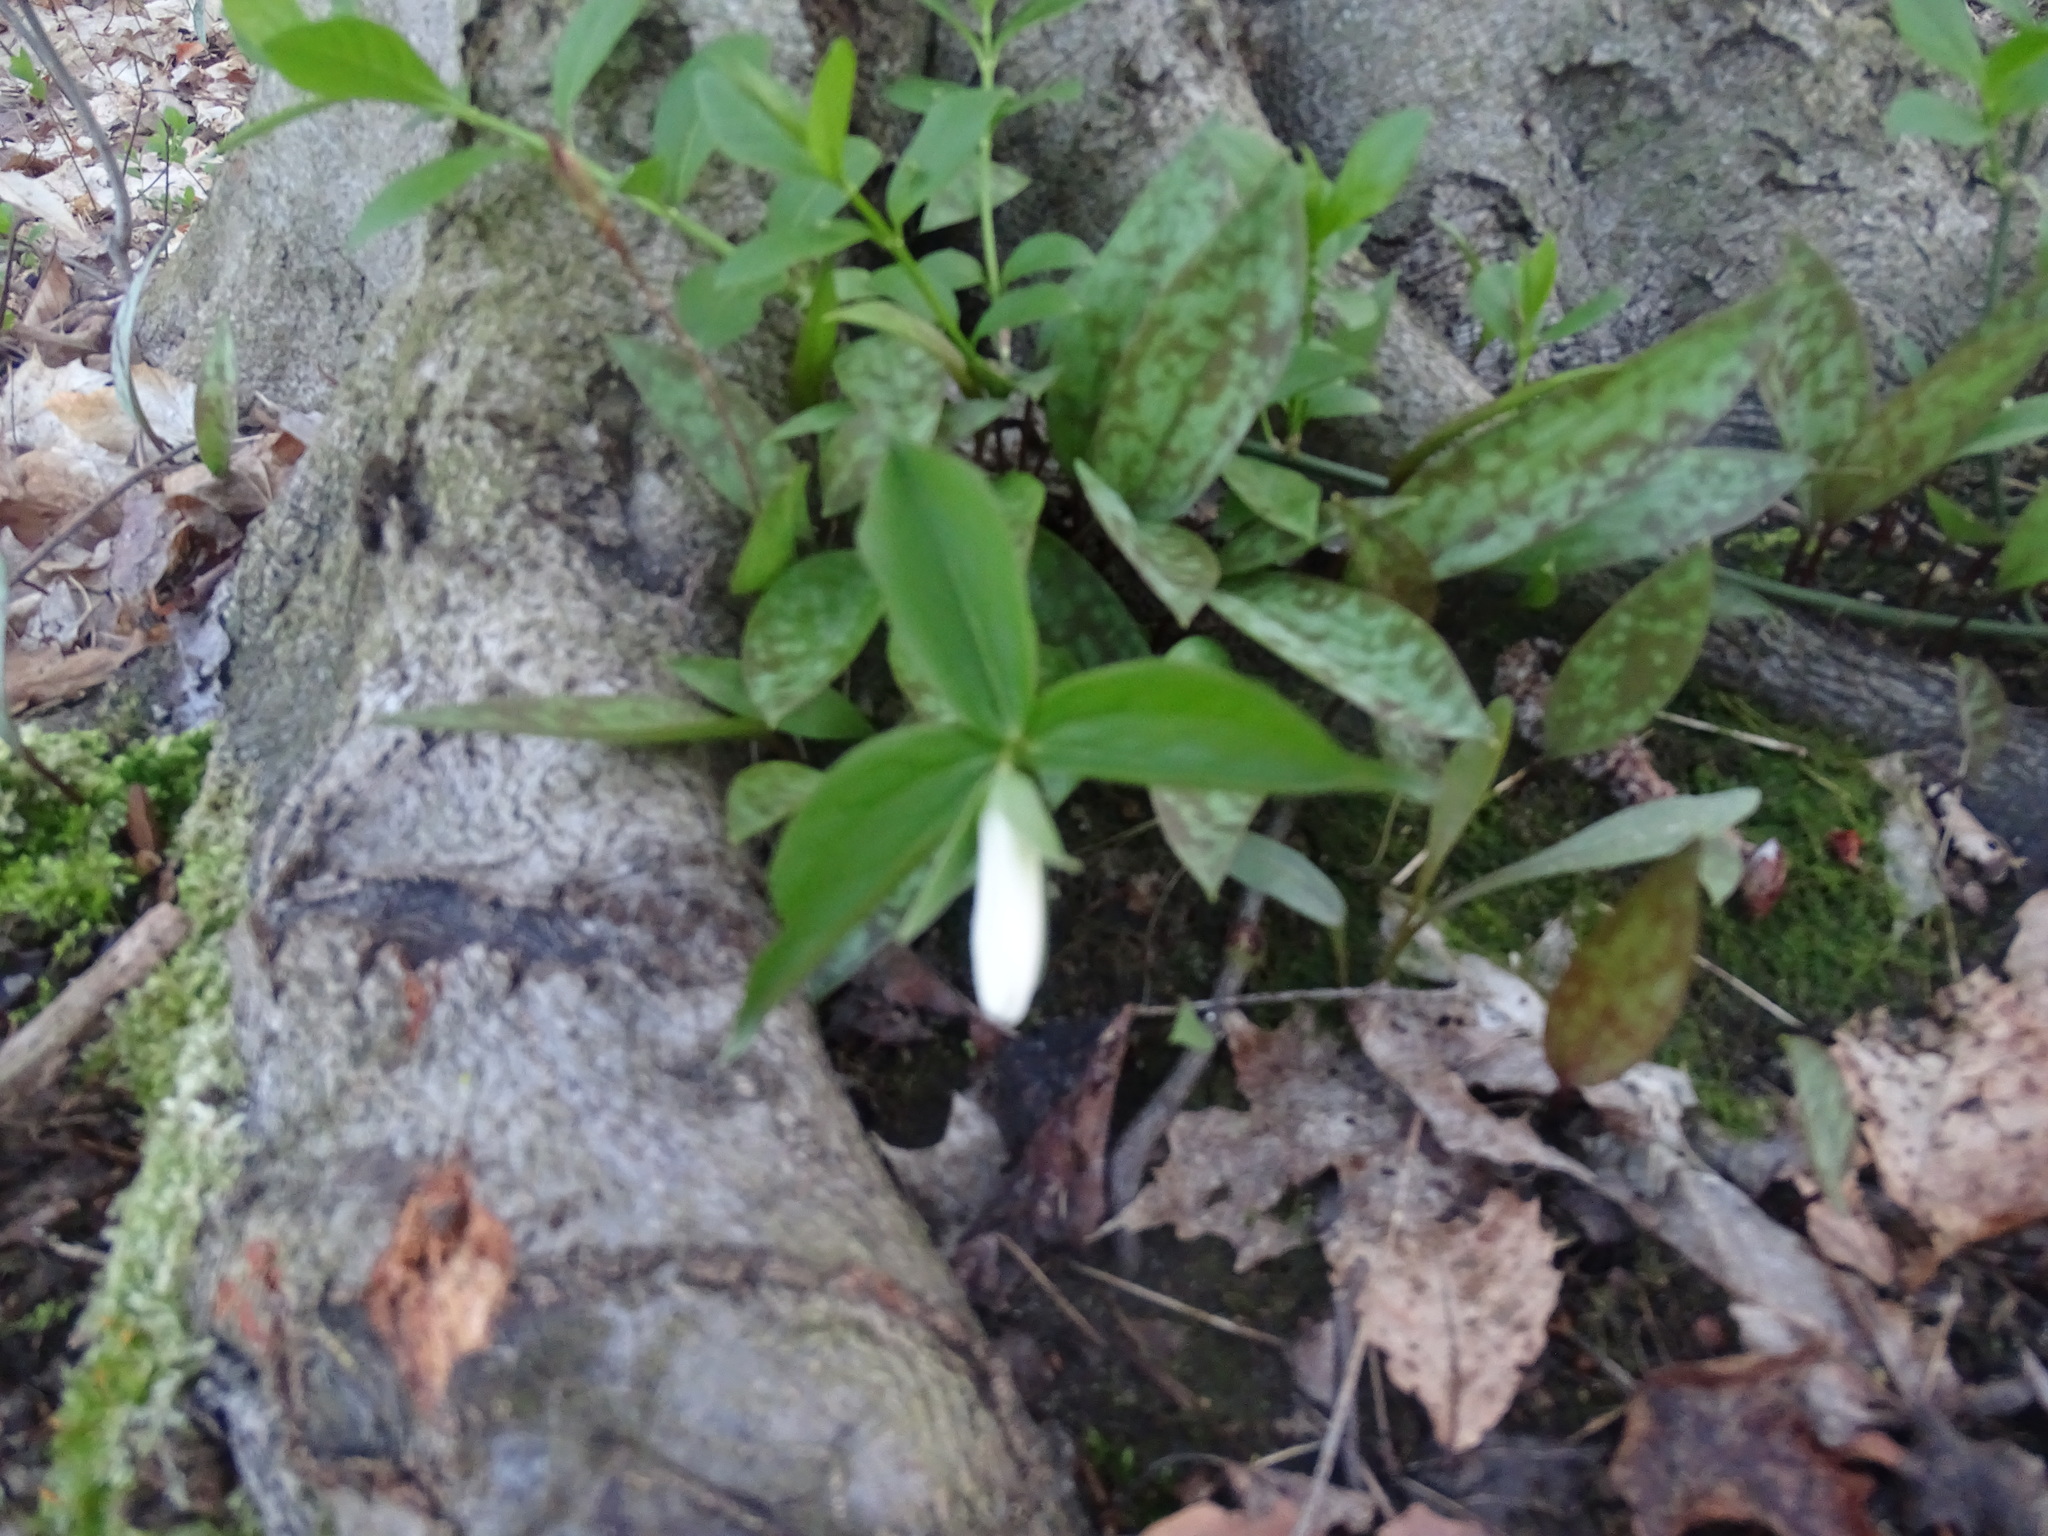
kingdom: Plantae
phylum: Tracheophyta
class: Liliopsida
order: Liliales
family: Melanthiaceae
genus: Trillium
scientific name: Trillium grandiflorum
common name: Great white trillium
